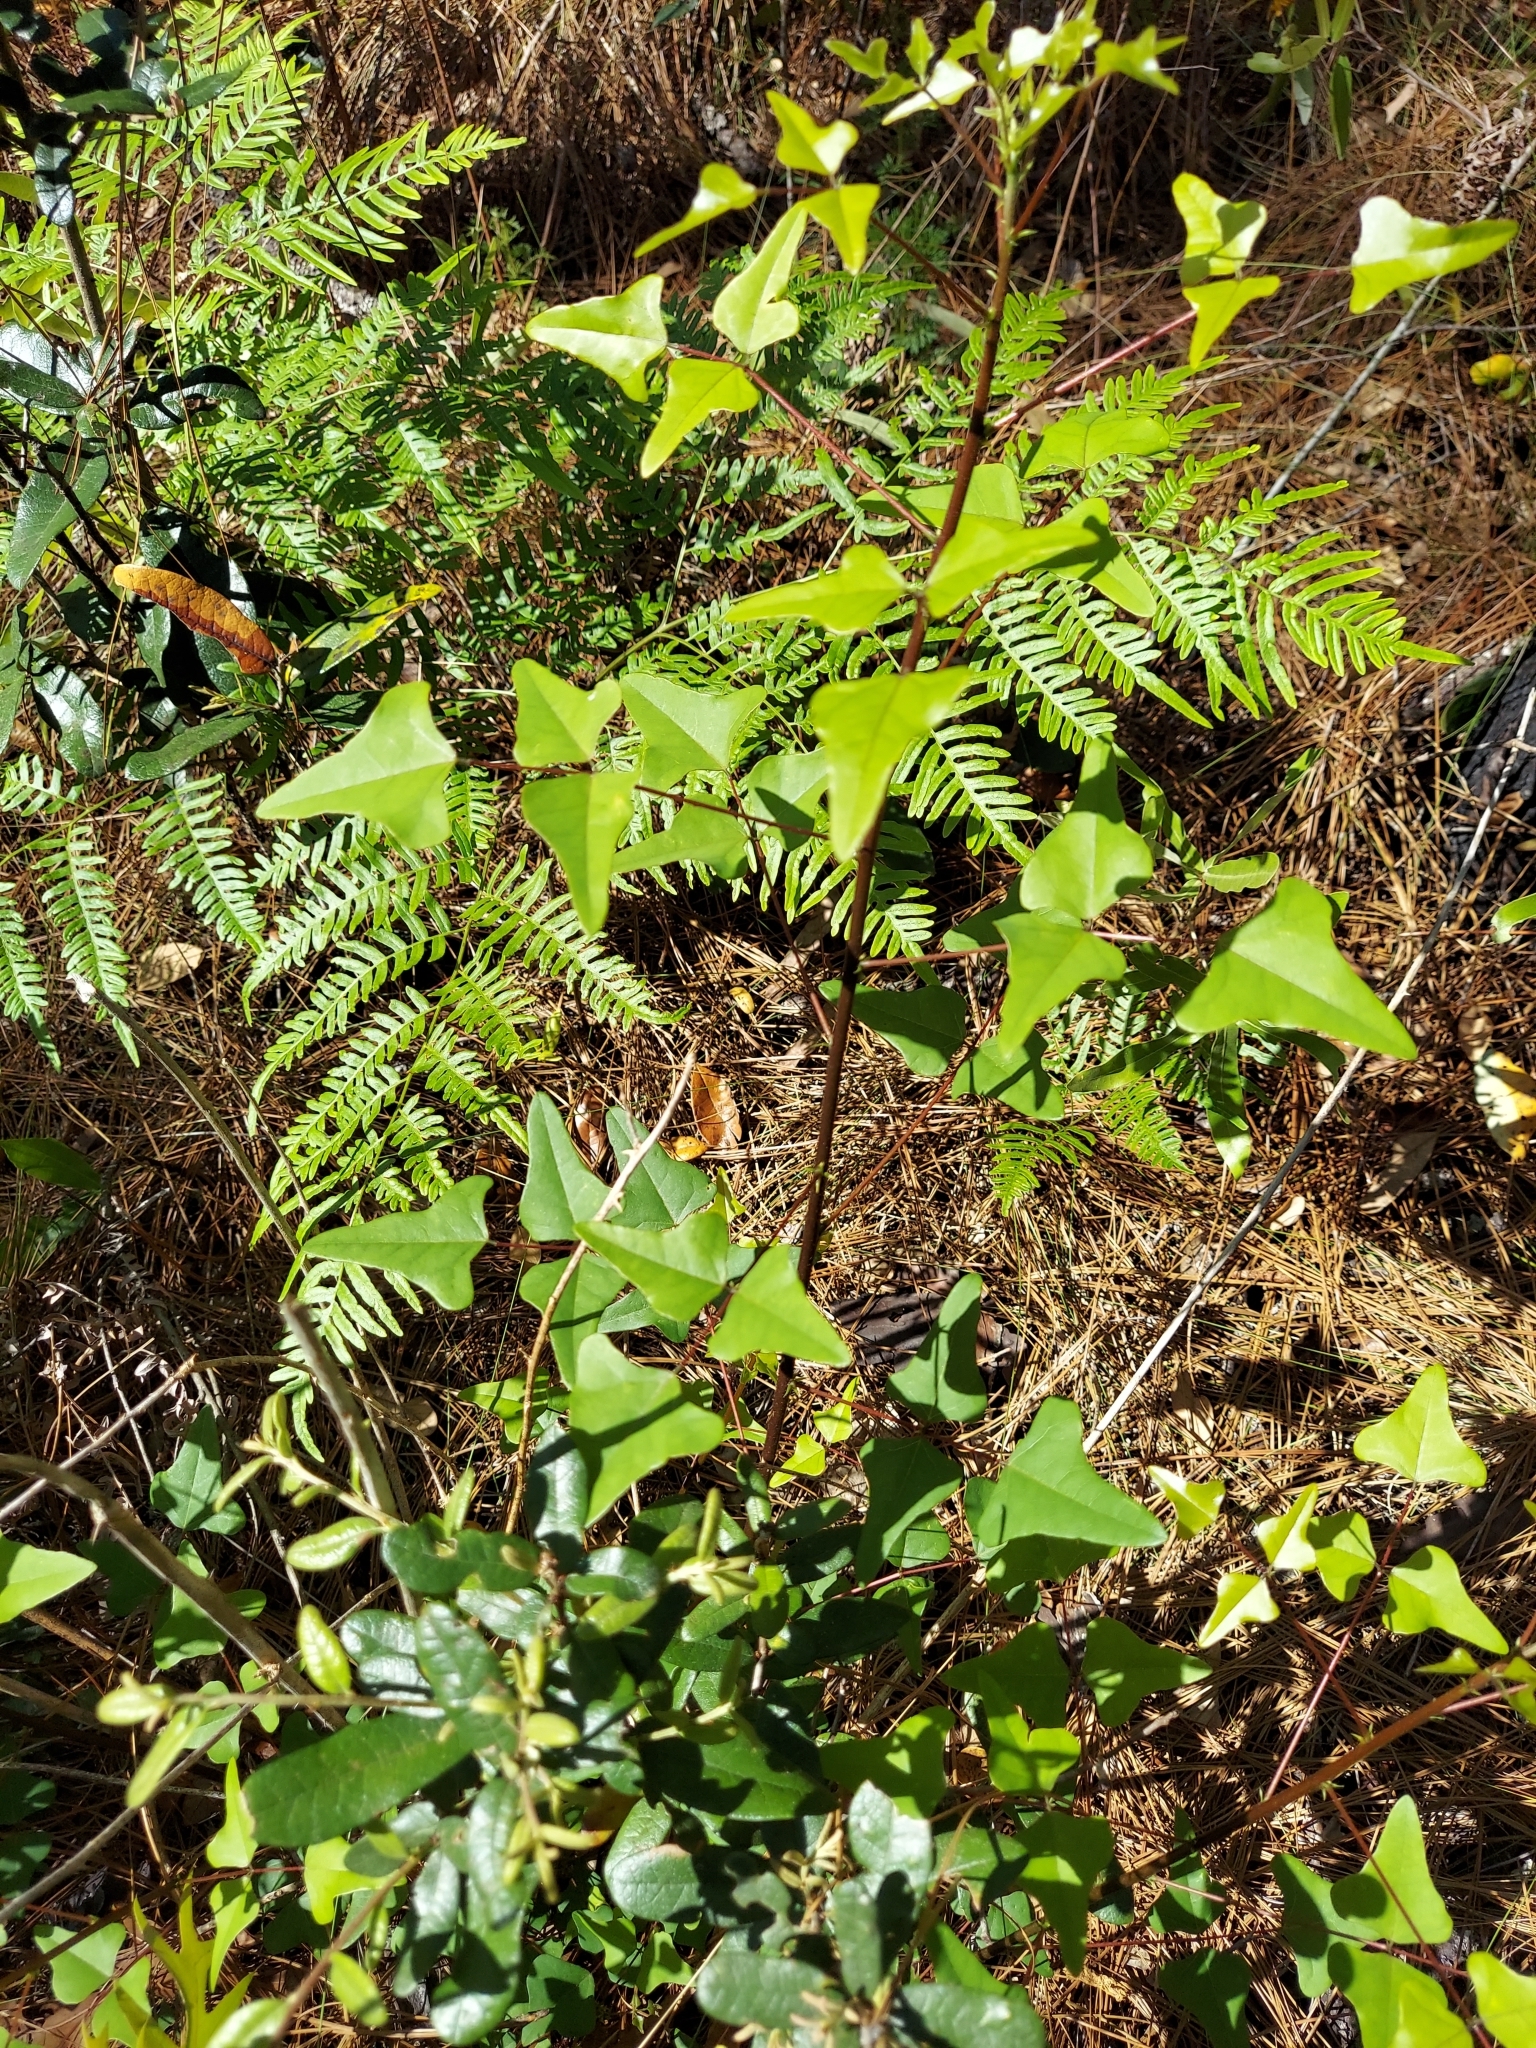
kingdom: Plantae
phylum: Tracheophyta
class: Magnoliopsida
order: Fabales
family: Fabaceae
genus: Erythrina
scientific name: Erythrina herbacea
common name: Coral-bean
